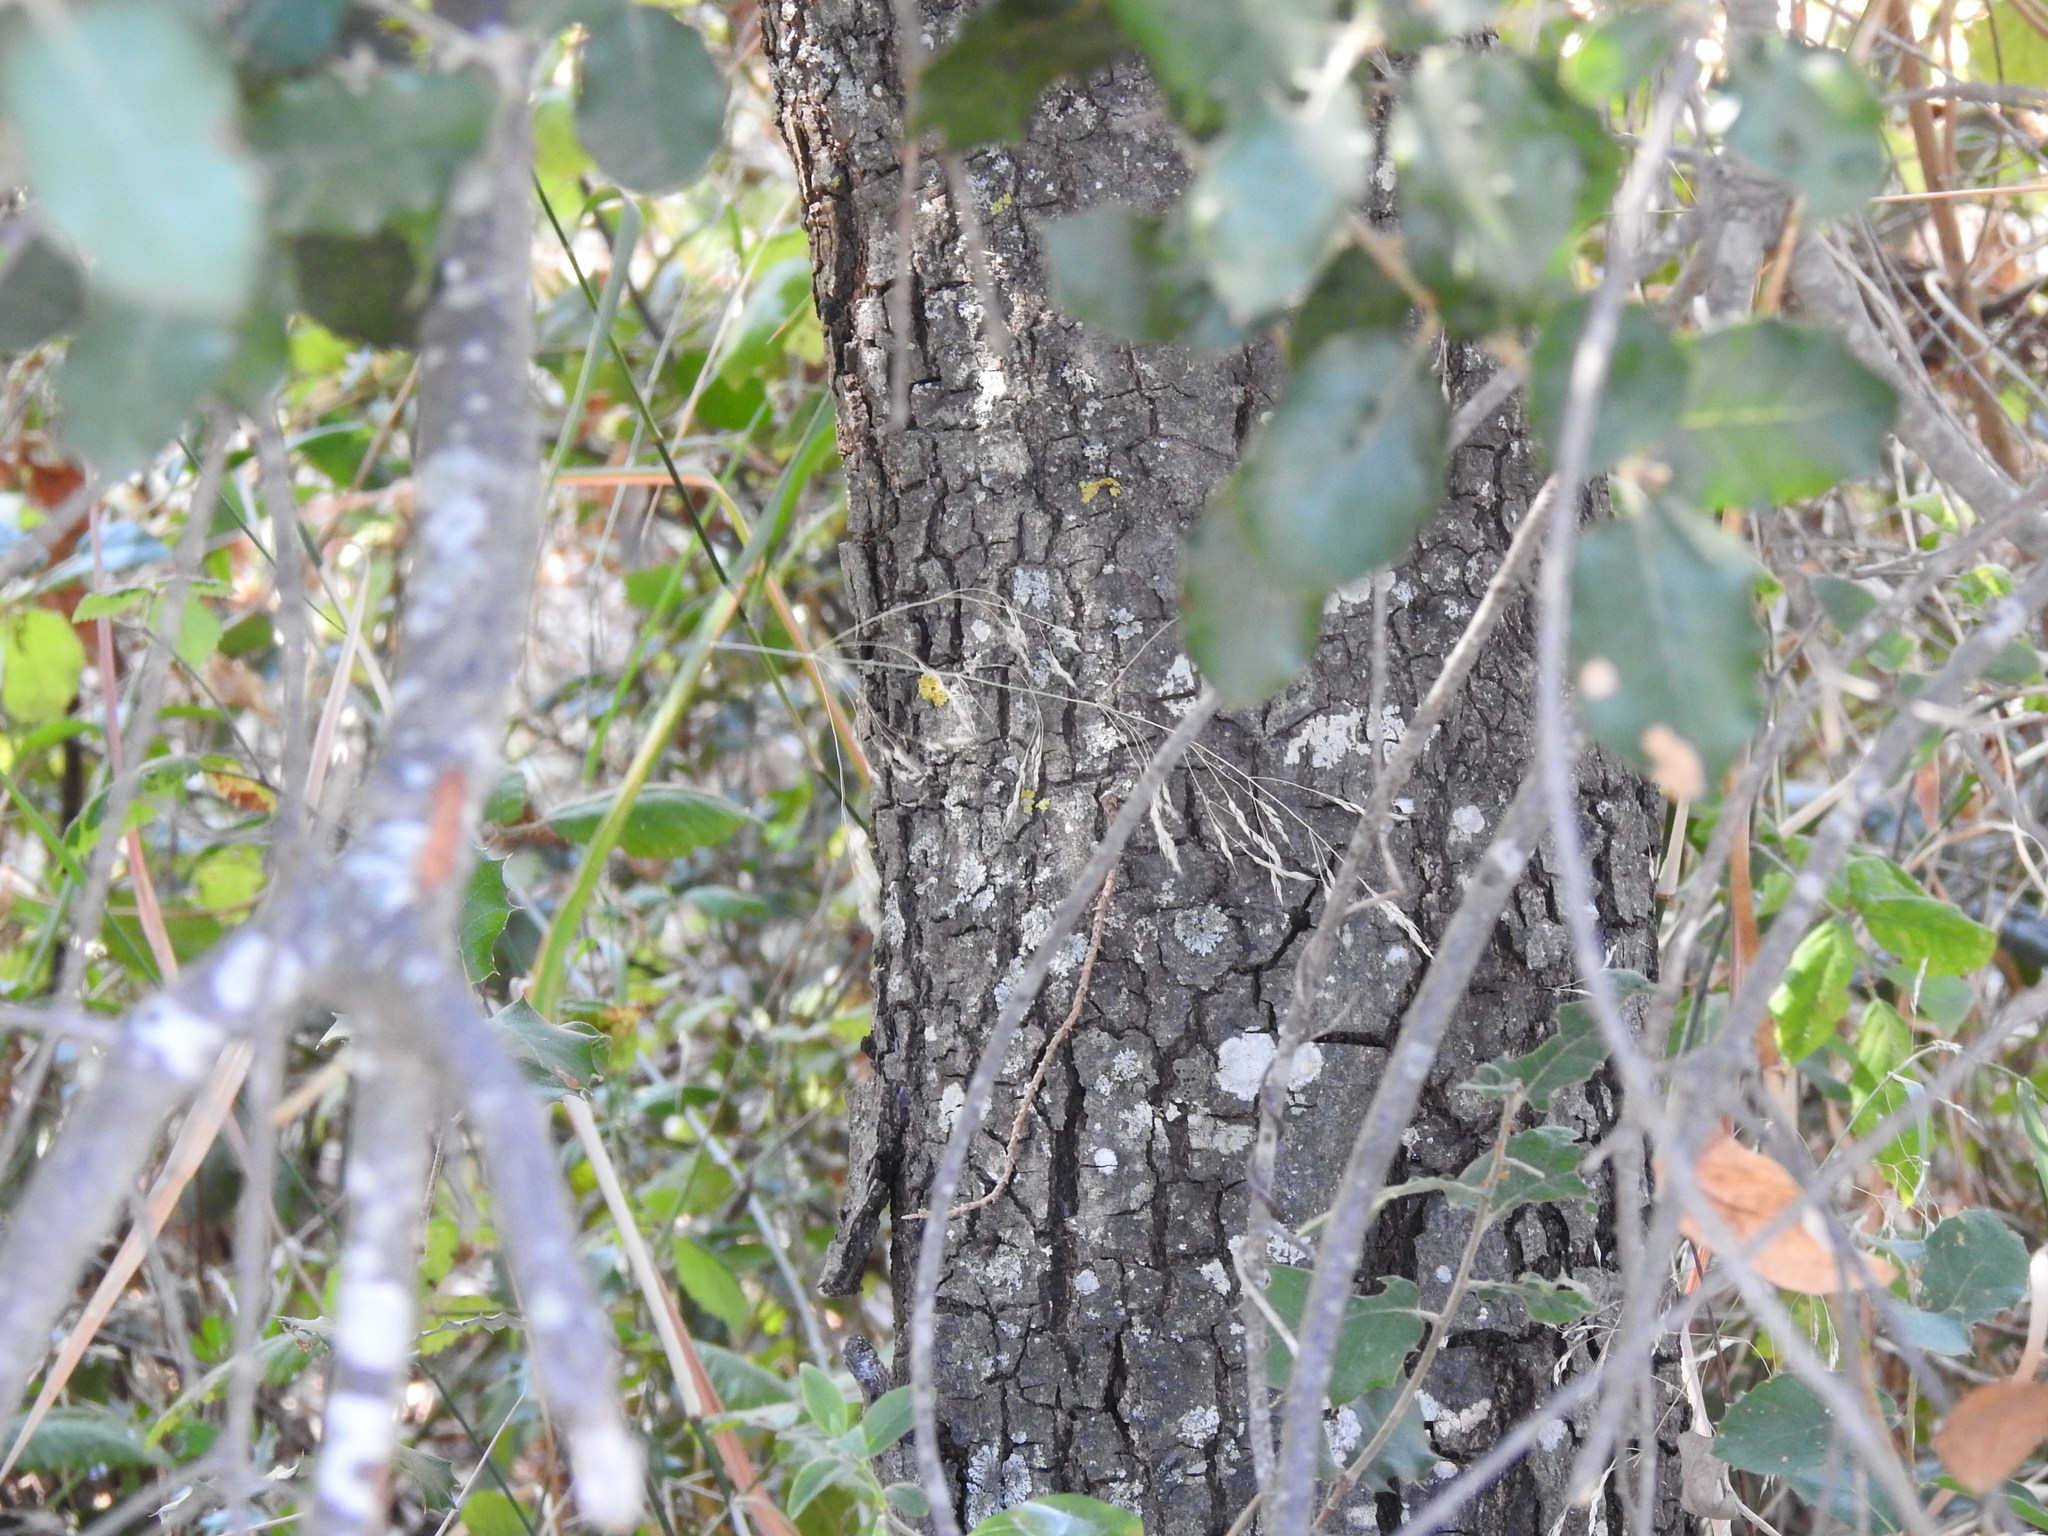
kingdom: Plantae
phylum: Tracheophyta
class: Magnoliopsida
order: Fagales
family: Fagaceae
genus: Quercus
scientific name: Quercus rotundifolia
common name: Holm oak
